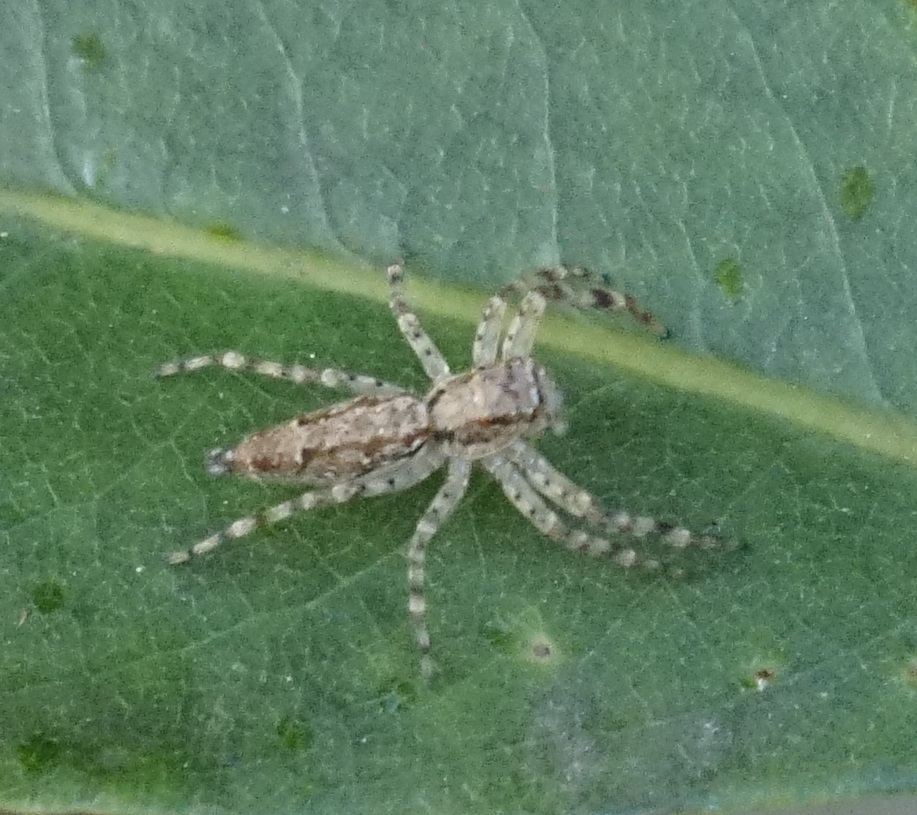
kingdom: Animalia
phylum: Arthropoda
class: Arachnida
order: Araneae
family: Salticidae
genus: Helpis
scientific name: Helpis minitabunda
